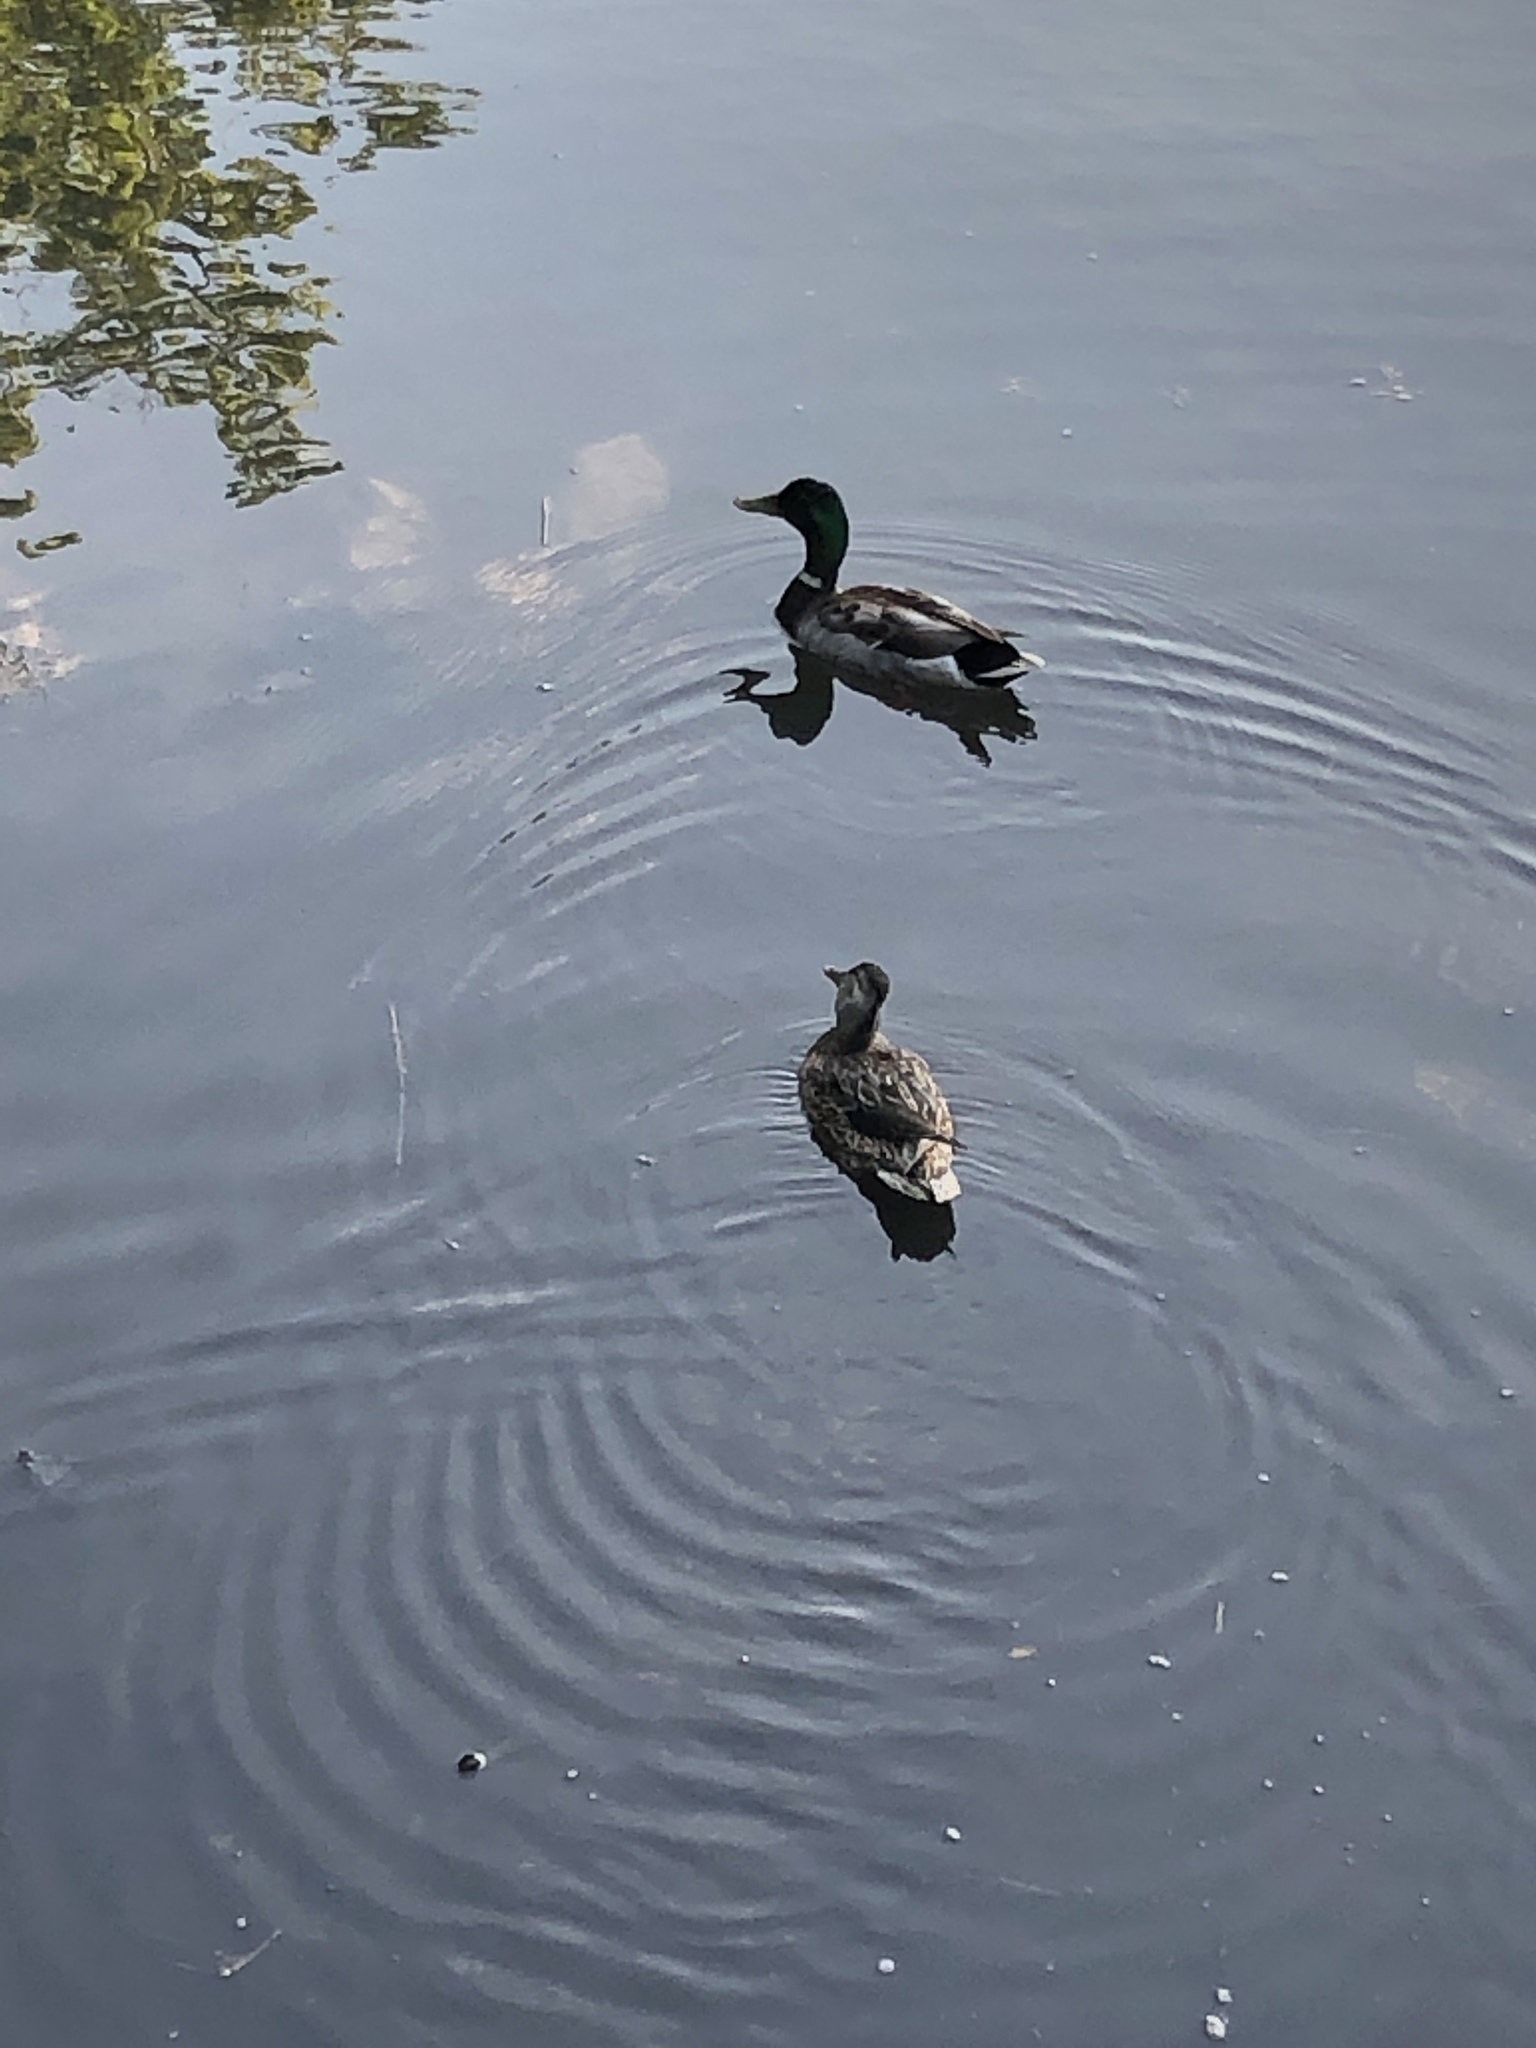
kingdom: Animalia
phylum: Chordata
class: Aves
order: Anseriformes
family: Anatidae
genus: Anas
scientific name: Anas platyrhynchos
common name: Mallard
